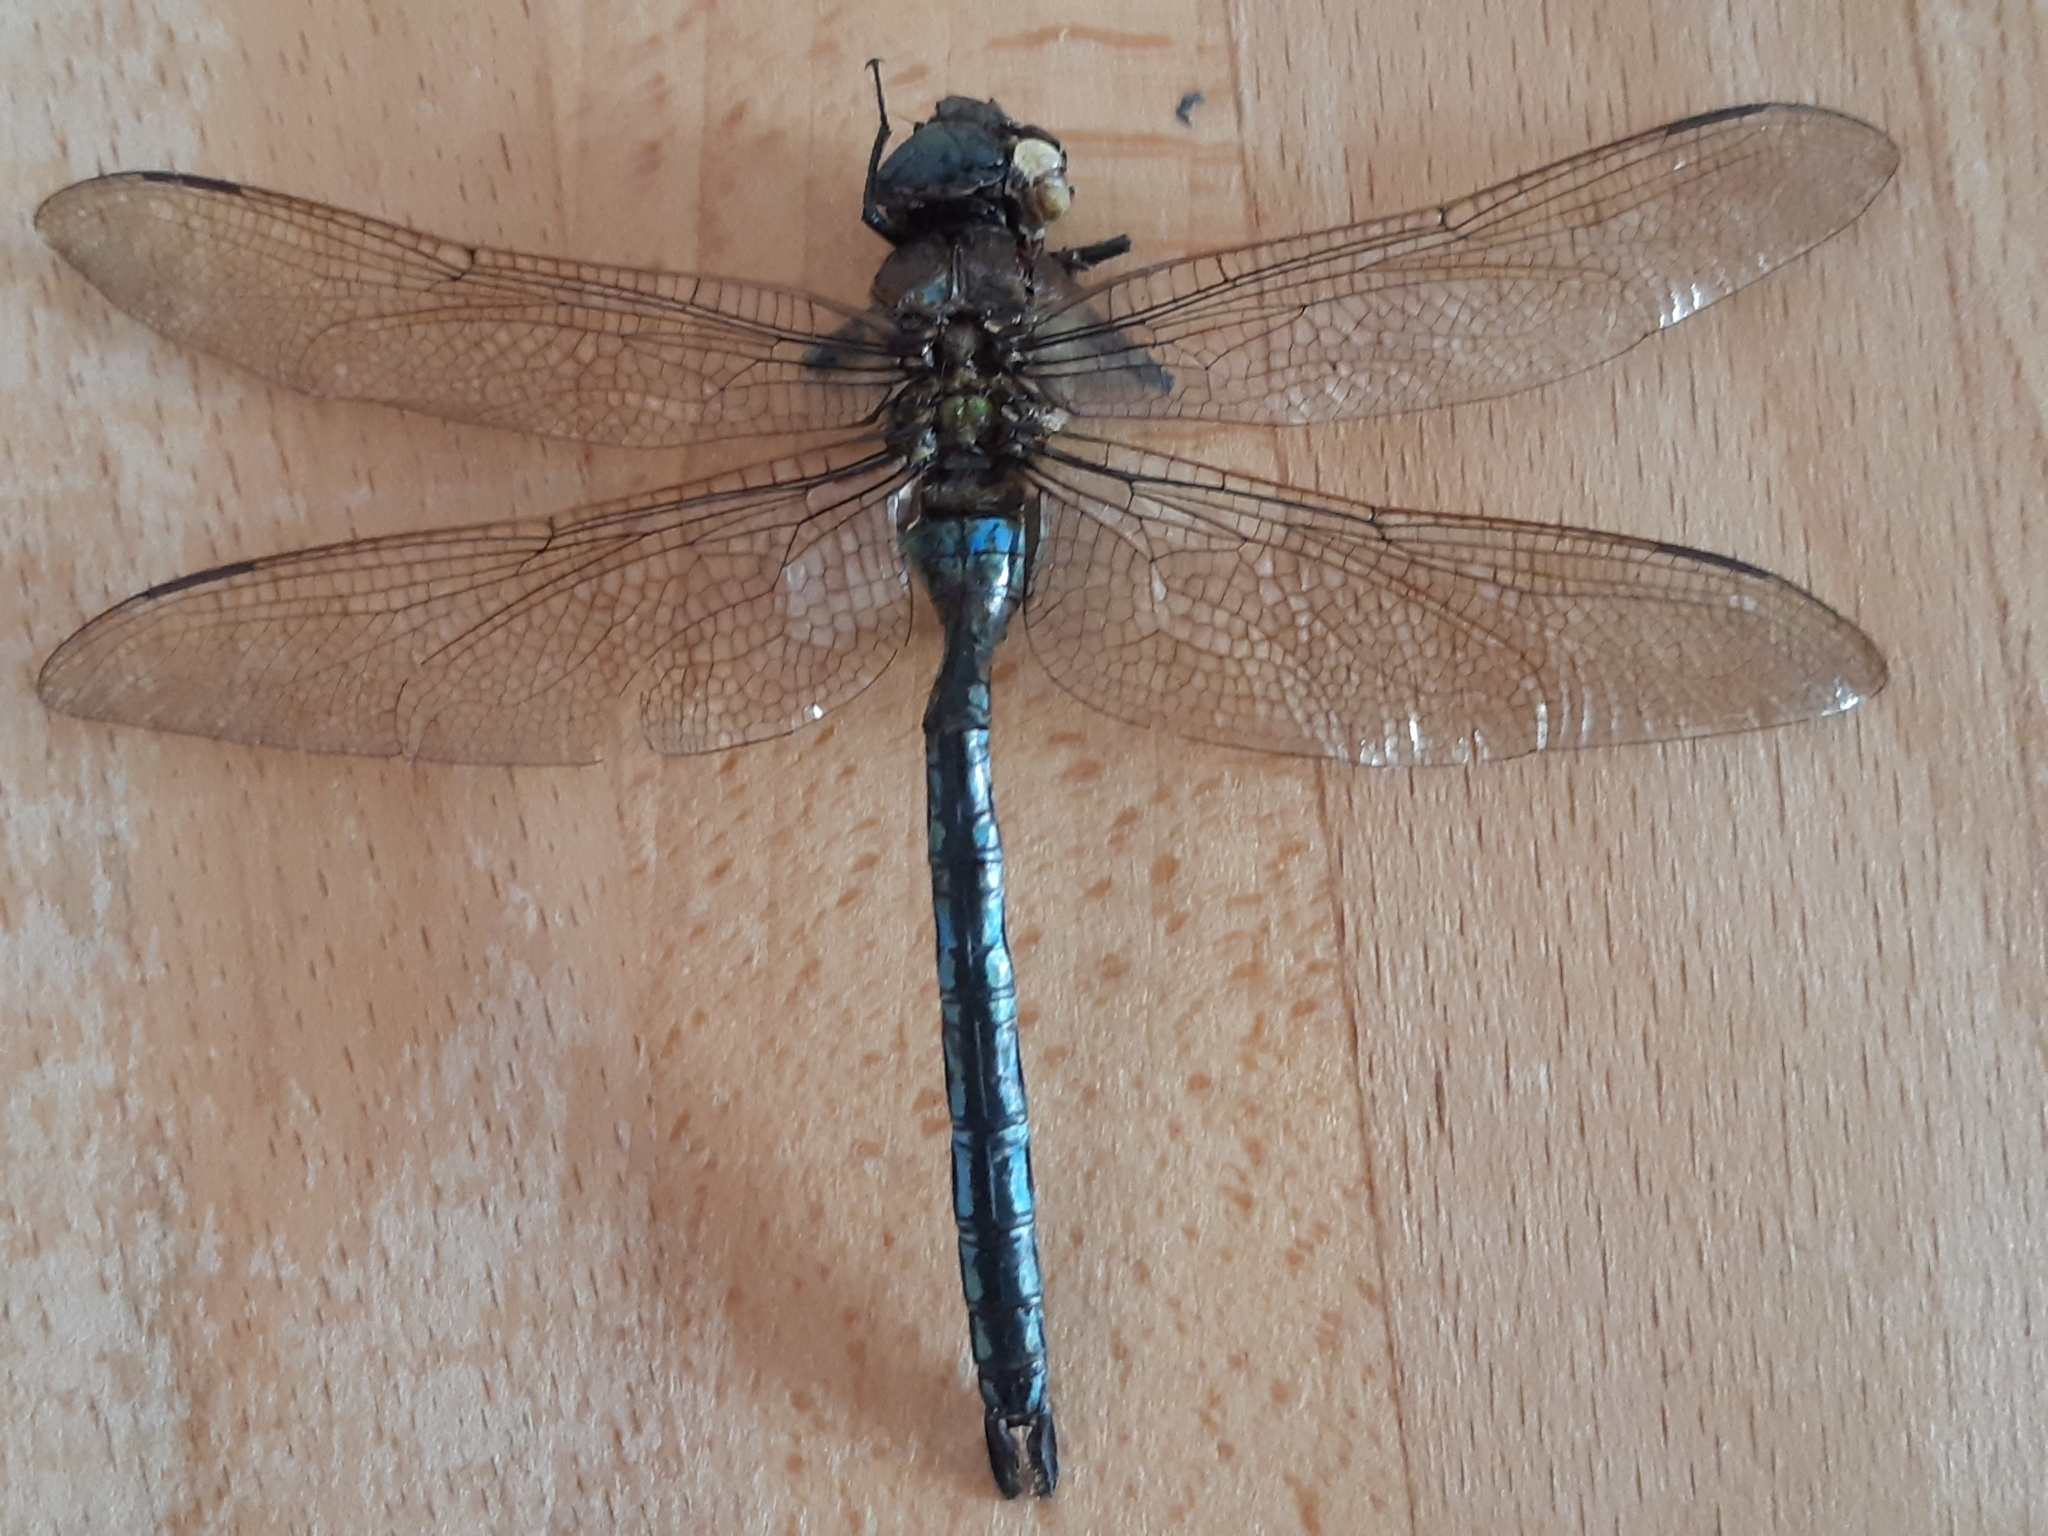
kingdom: Animalia
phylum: Arthropoda
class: Insecta
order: Odonata
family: Aeshnidae
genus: Anax
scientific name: Anax imperator
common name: Emperor dragonfly
